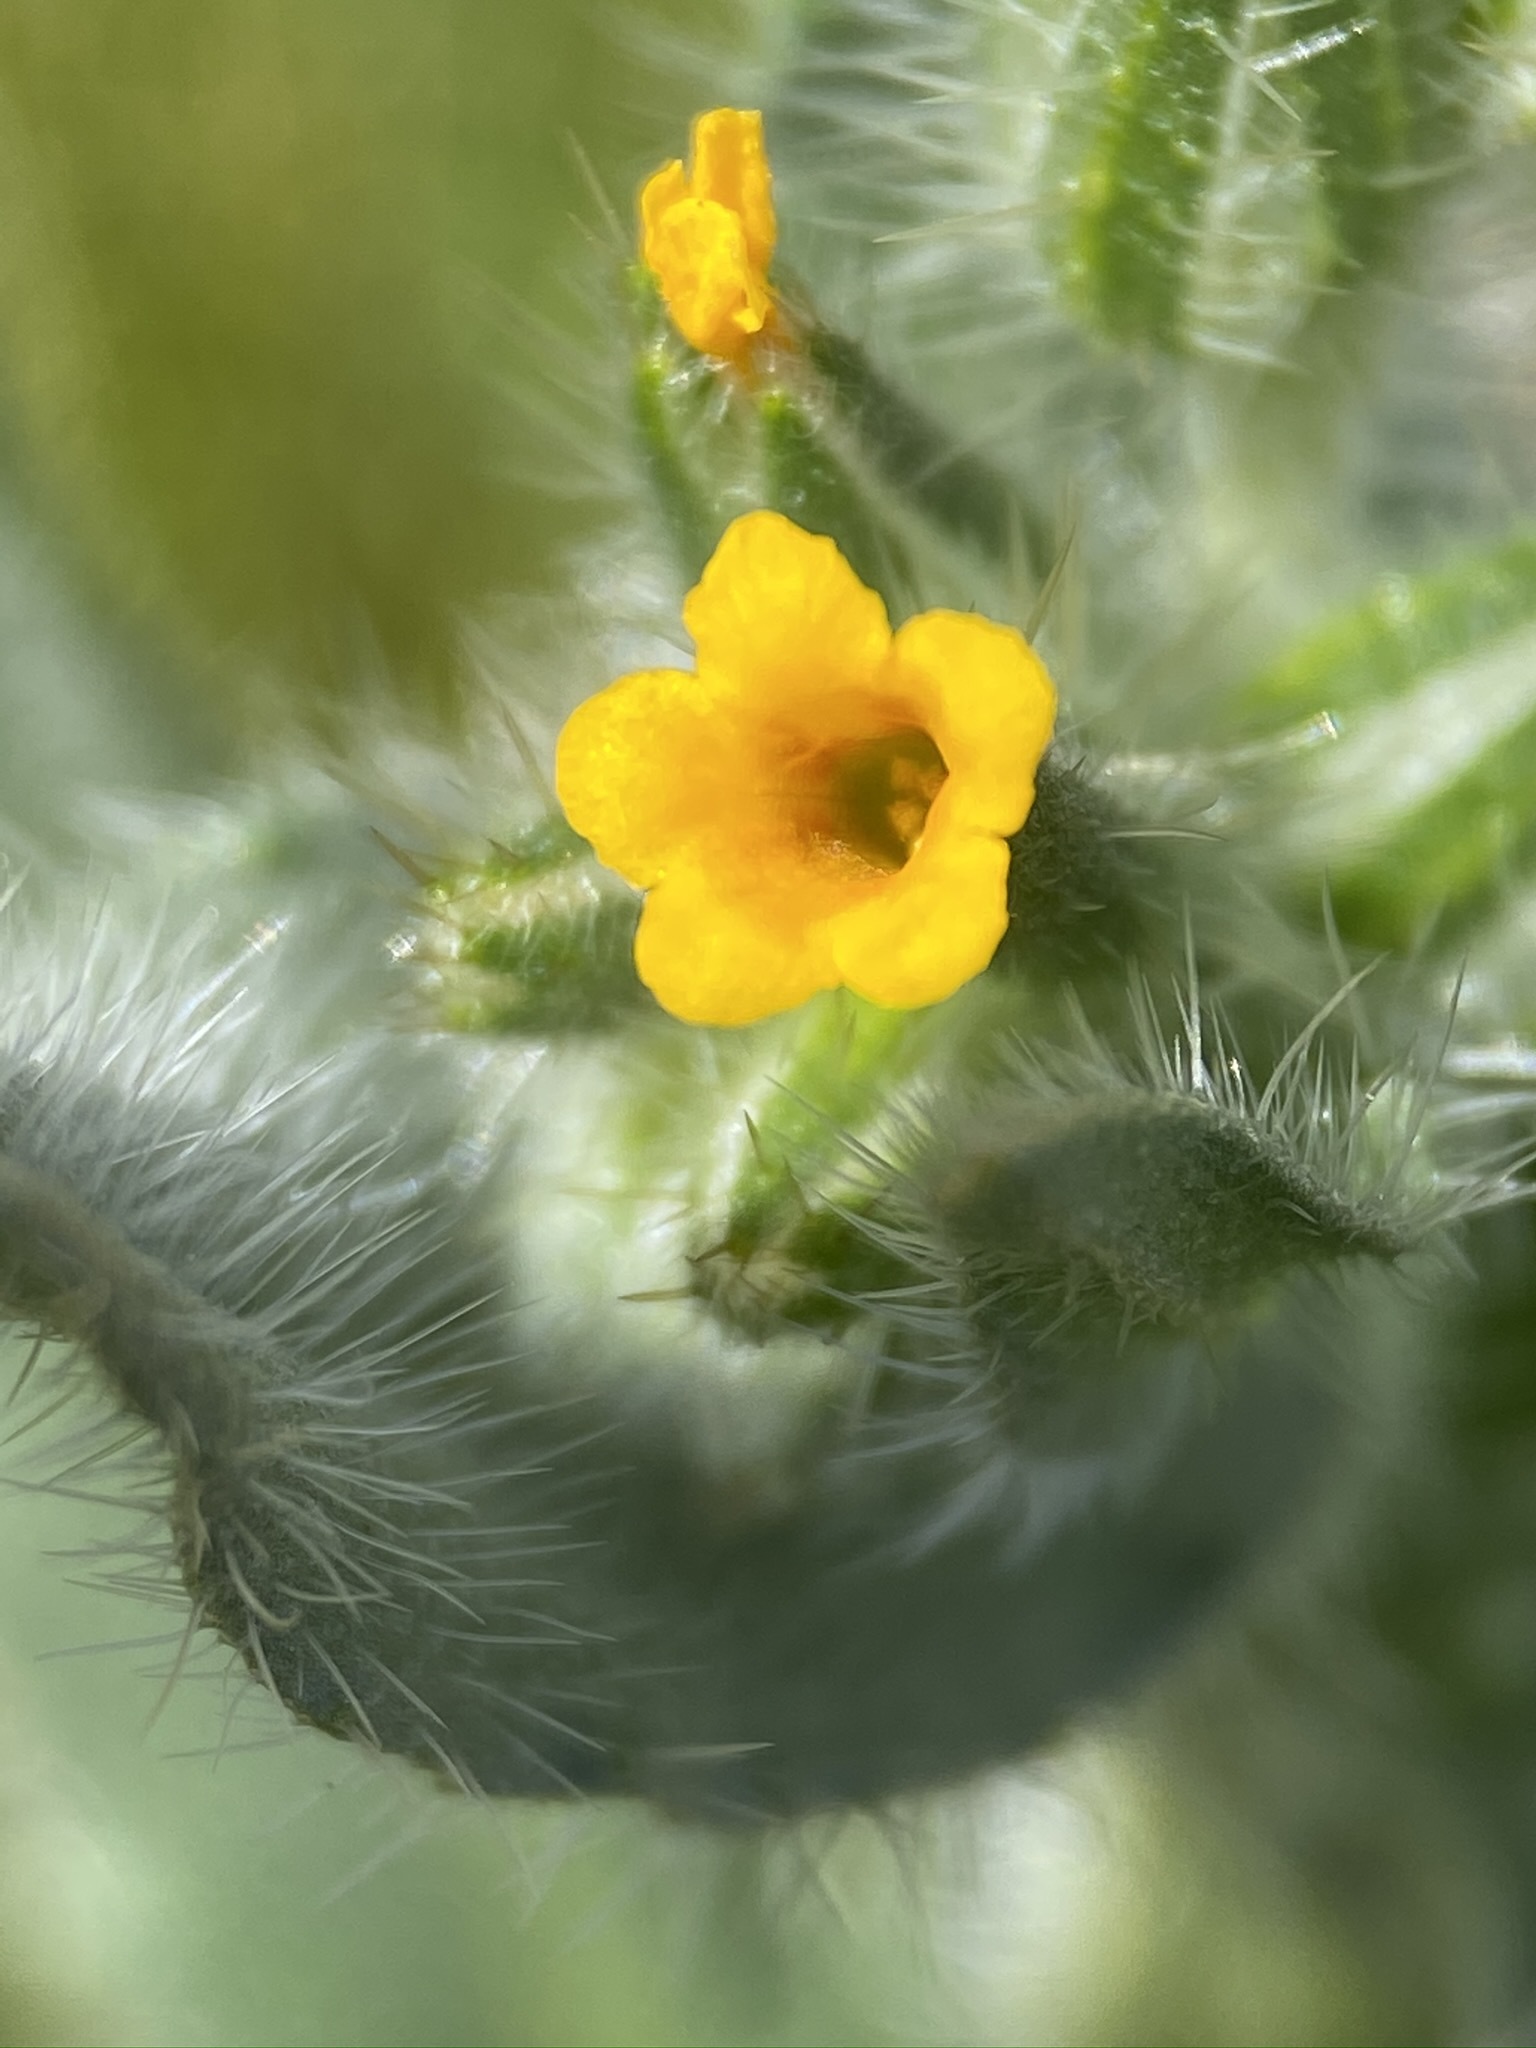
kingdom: Plantae
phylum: Tracheophyta
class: Magnoliopsida
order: Boraginales
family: Boraginaceae
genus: Amsinckia
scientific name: Amsinckia tessellata
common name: Tessellate fiddleneck
